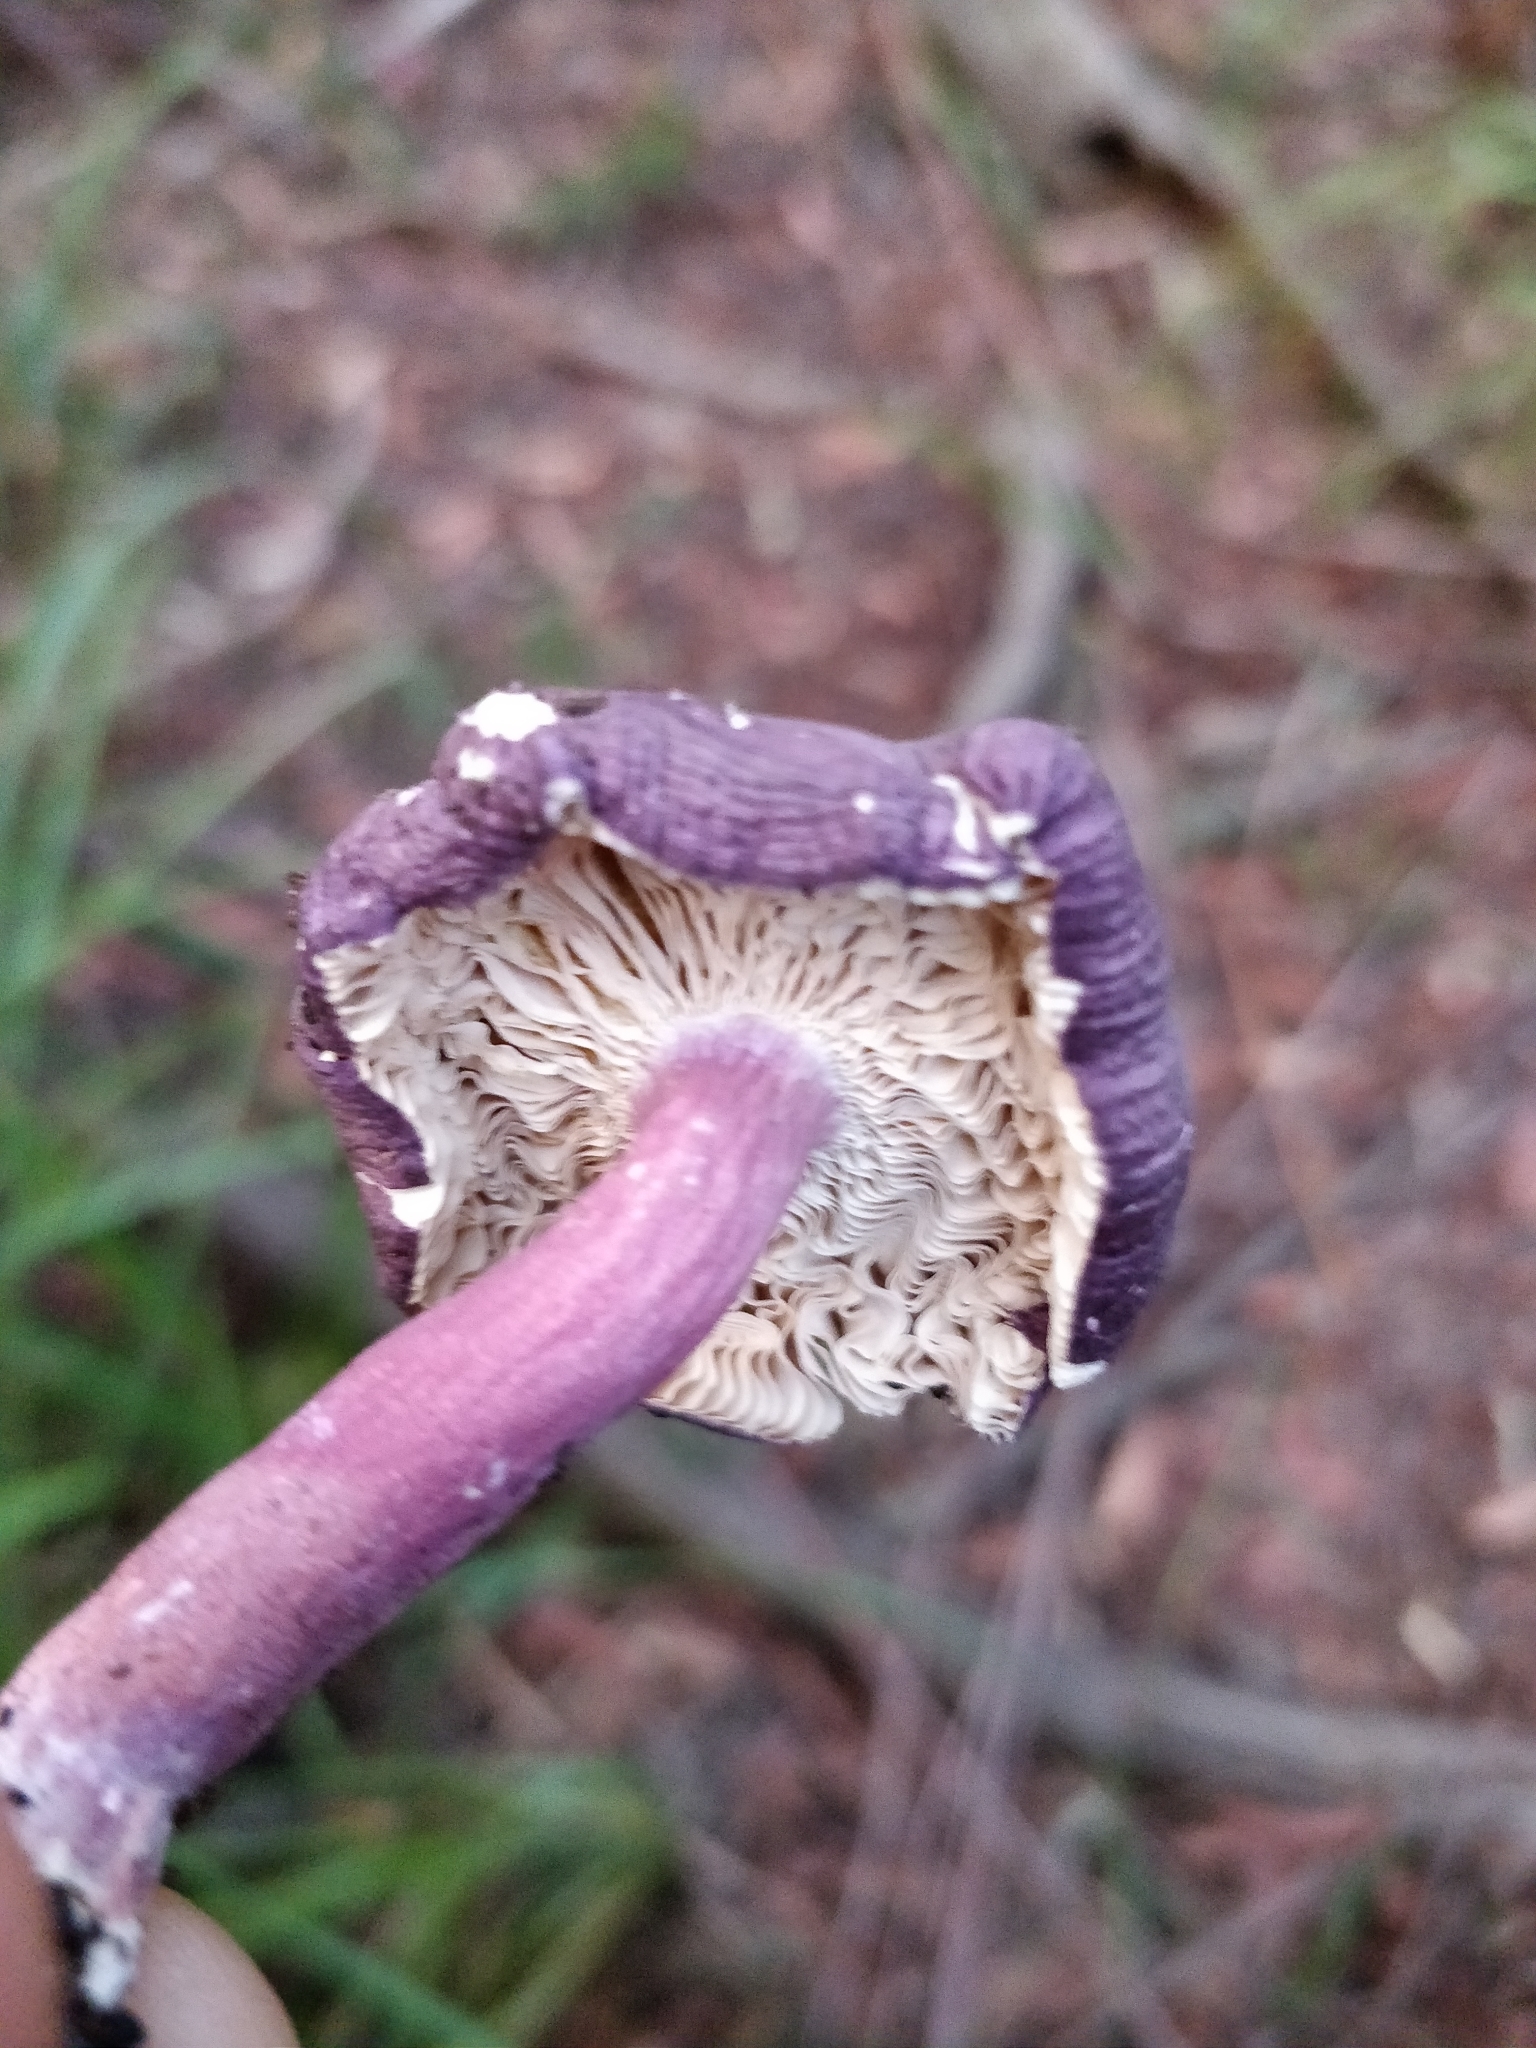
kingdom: Fungi
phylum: Basidiomycota
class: Agaricomycetes
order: Russulales
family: Russulaceae
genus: Russula
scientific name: Russula lenkunya
